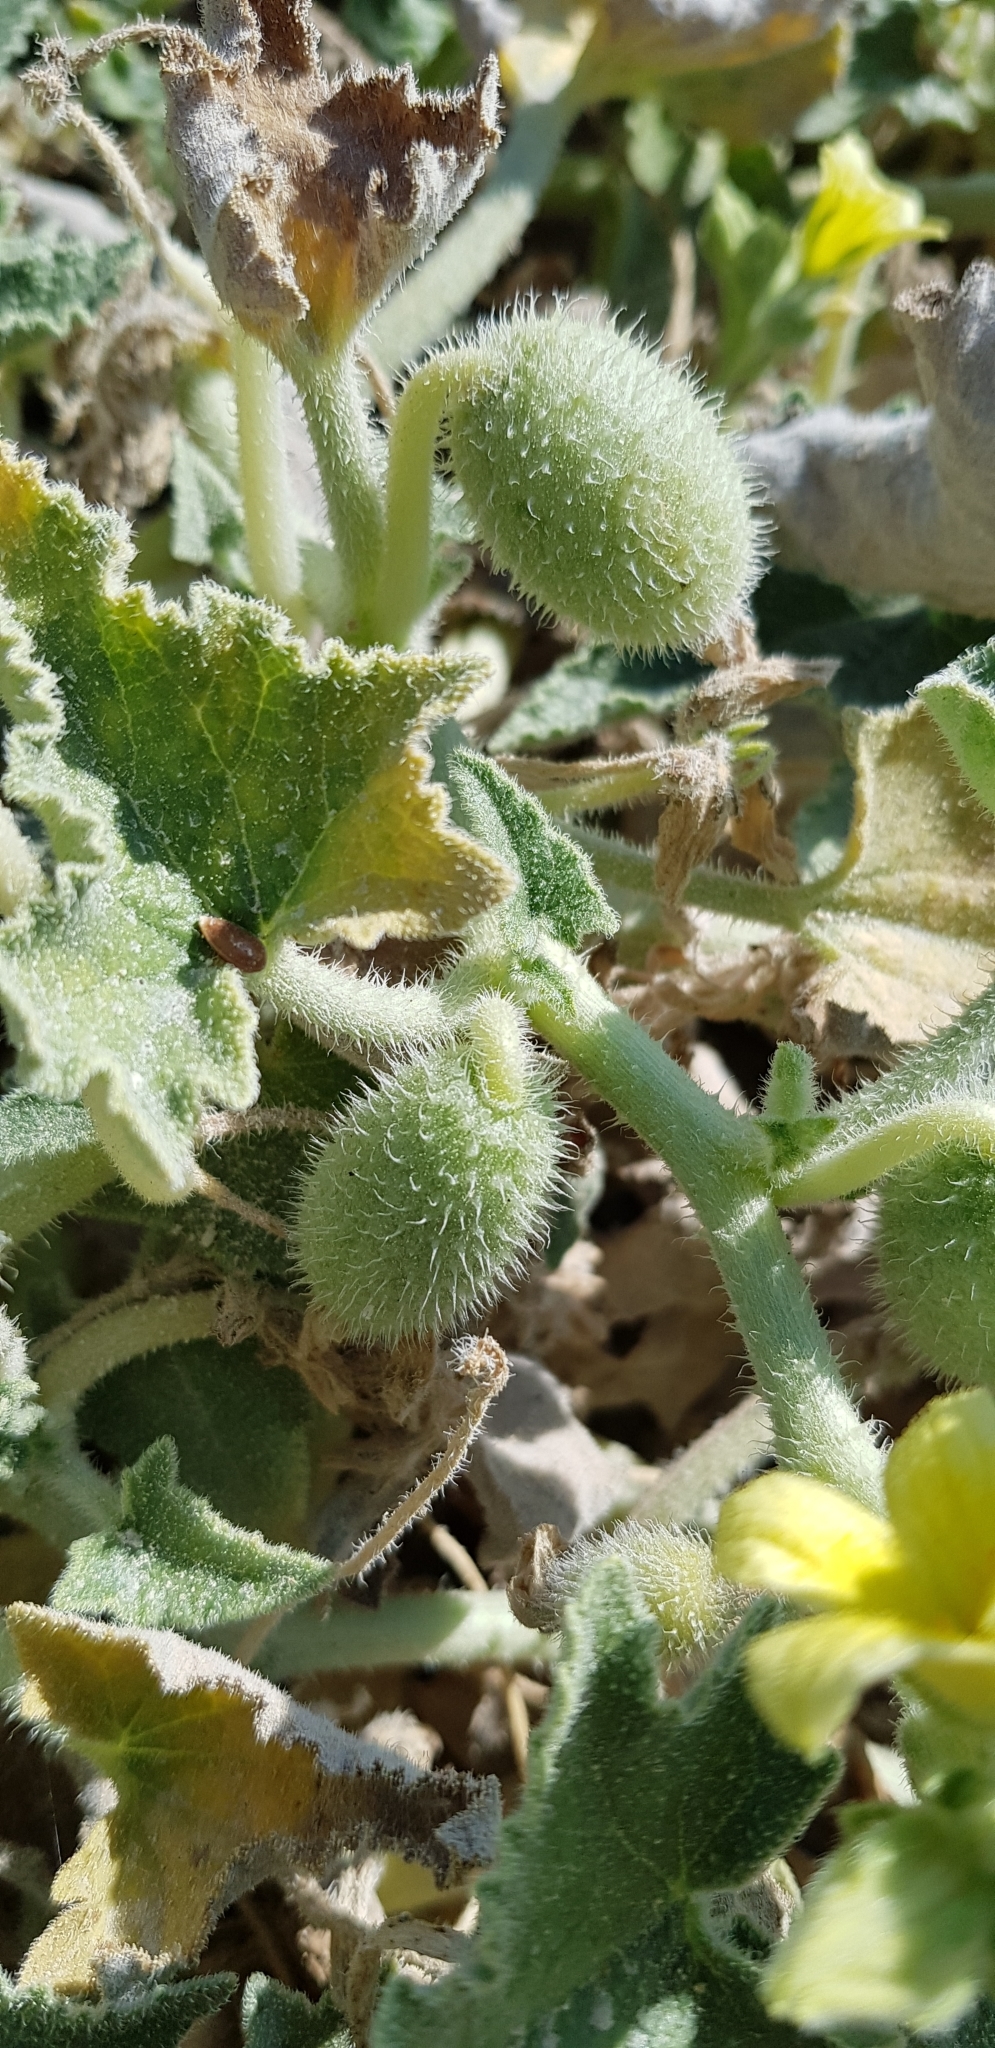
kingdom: Plantae
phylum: Tracheophyta
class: Magnoliopsida
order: Cucurbitales
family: Cucurbitaceae
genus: Ecballium
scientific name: Ecballium elaterium
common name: Squirting cucumber
